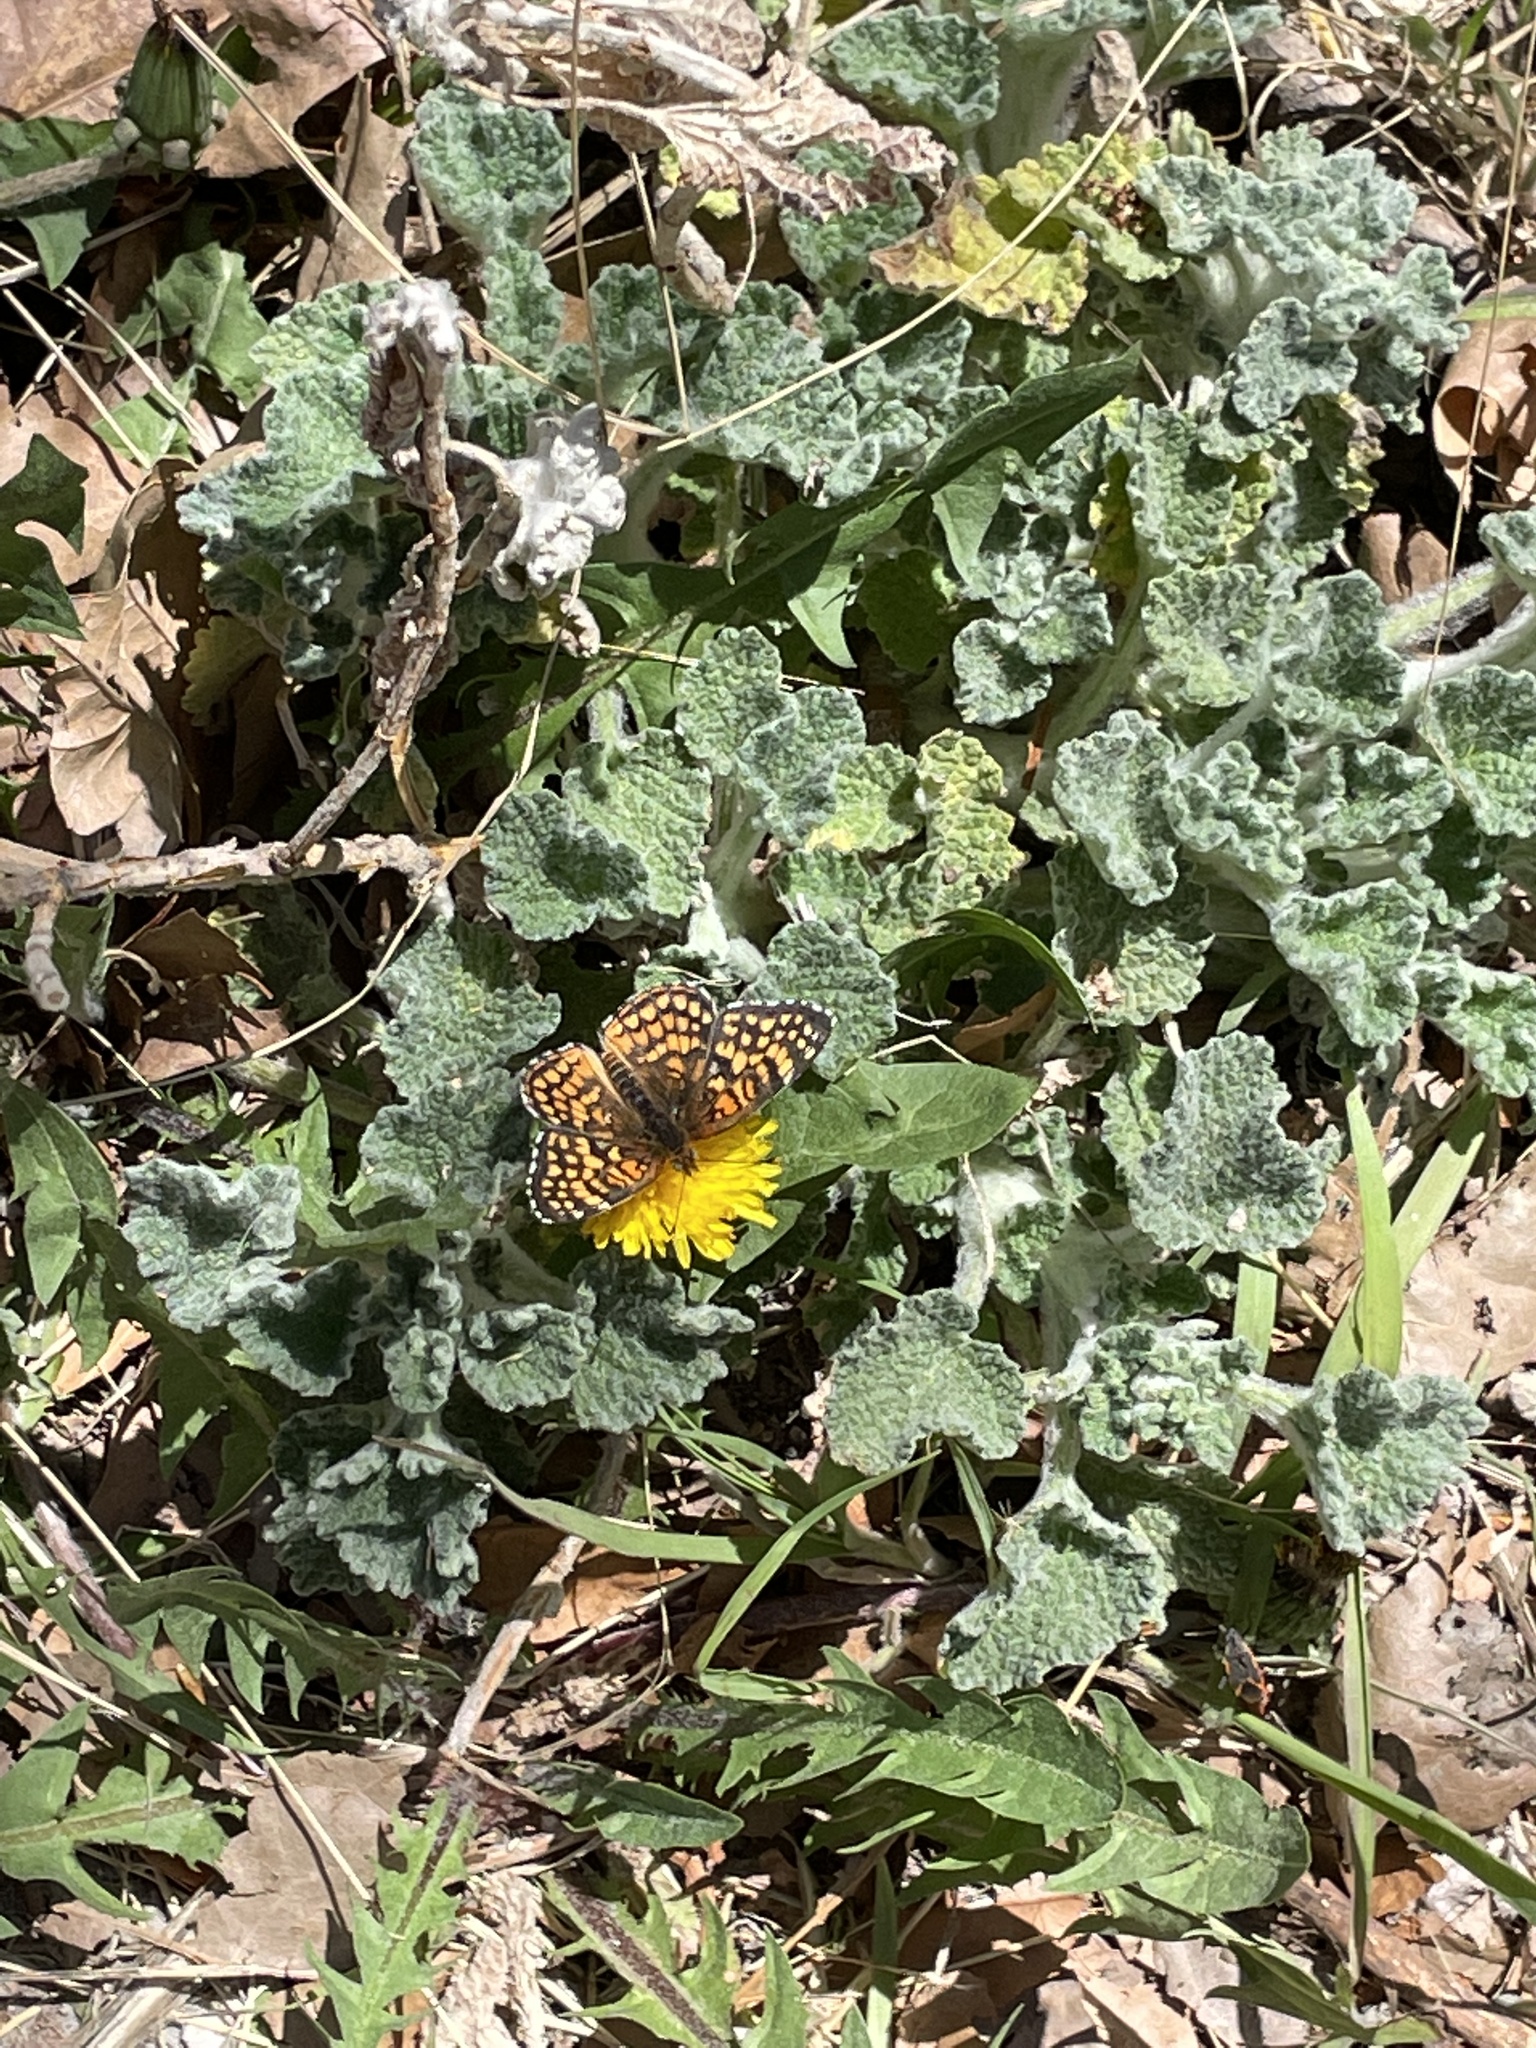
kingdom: Animalia
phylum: Arthropoda
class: Insecta
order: Lepidoptera
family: Nymphalidae
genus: Chlosyne
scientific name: Chlosyne acastus
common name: Sagebrush checkerspot
